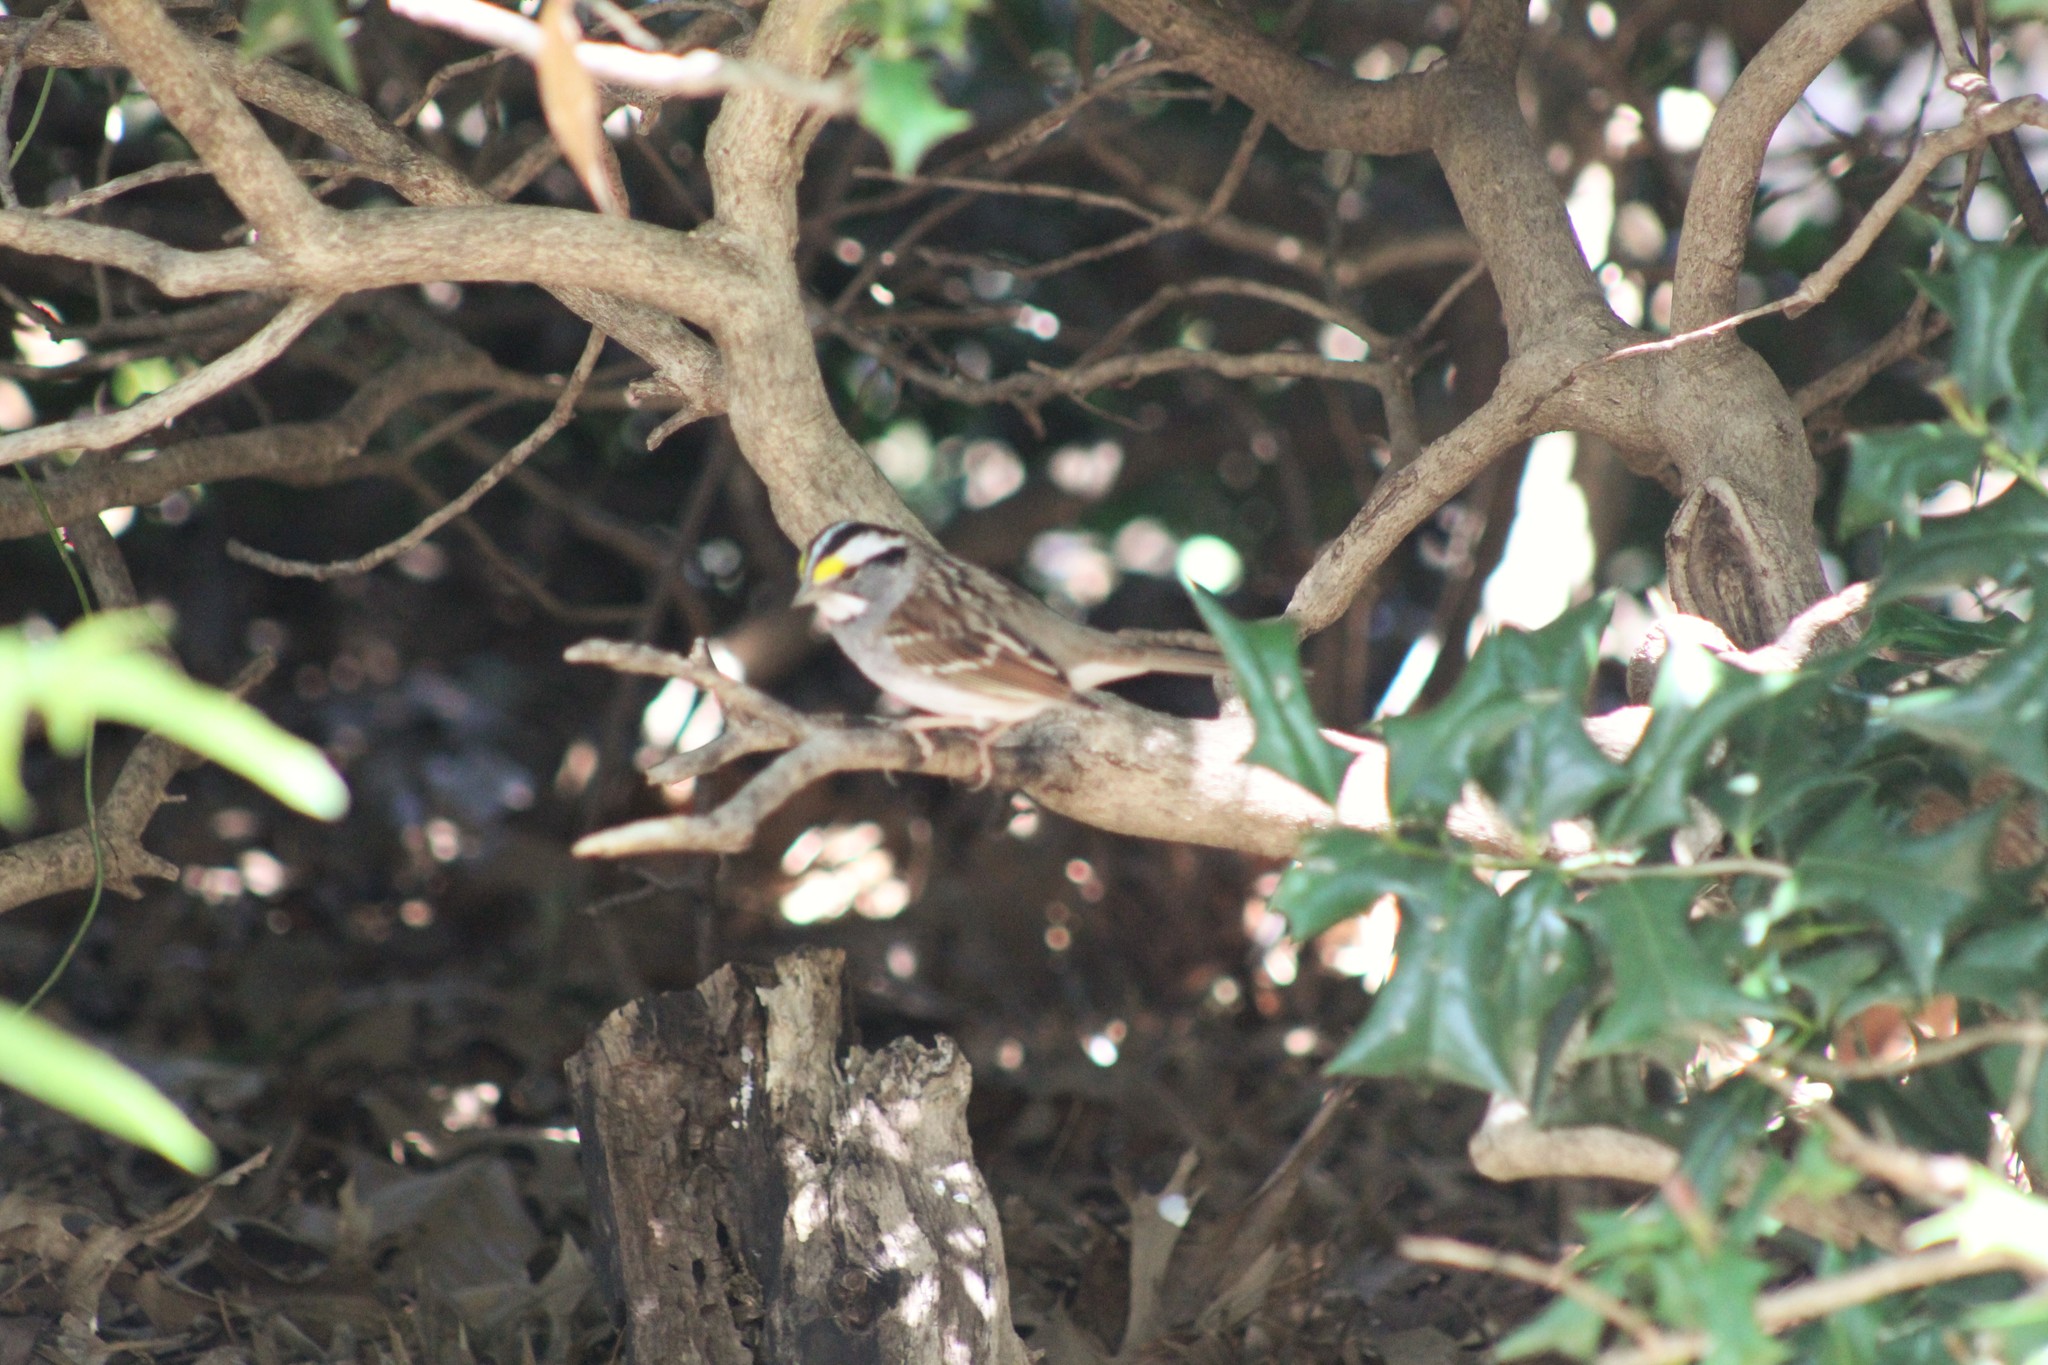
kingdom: Animalia
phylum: Chordata
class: Aves
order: Passeriformes
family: Passerellidae
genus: Zonotrichia
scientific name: Zonotrichia albicollis
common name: White-throated sparrow
